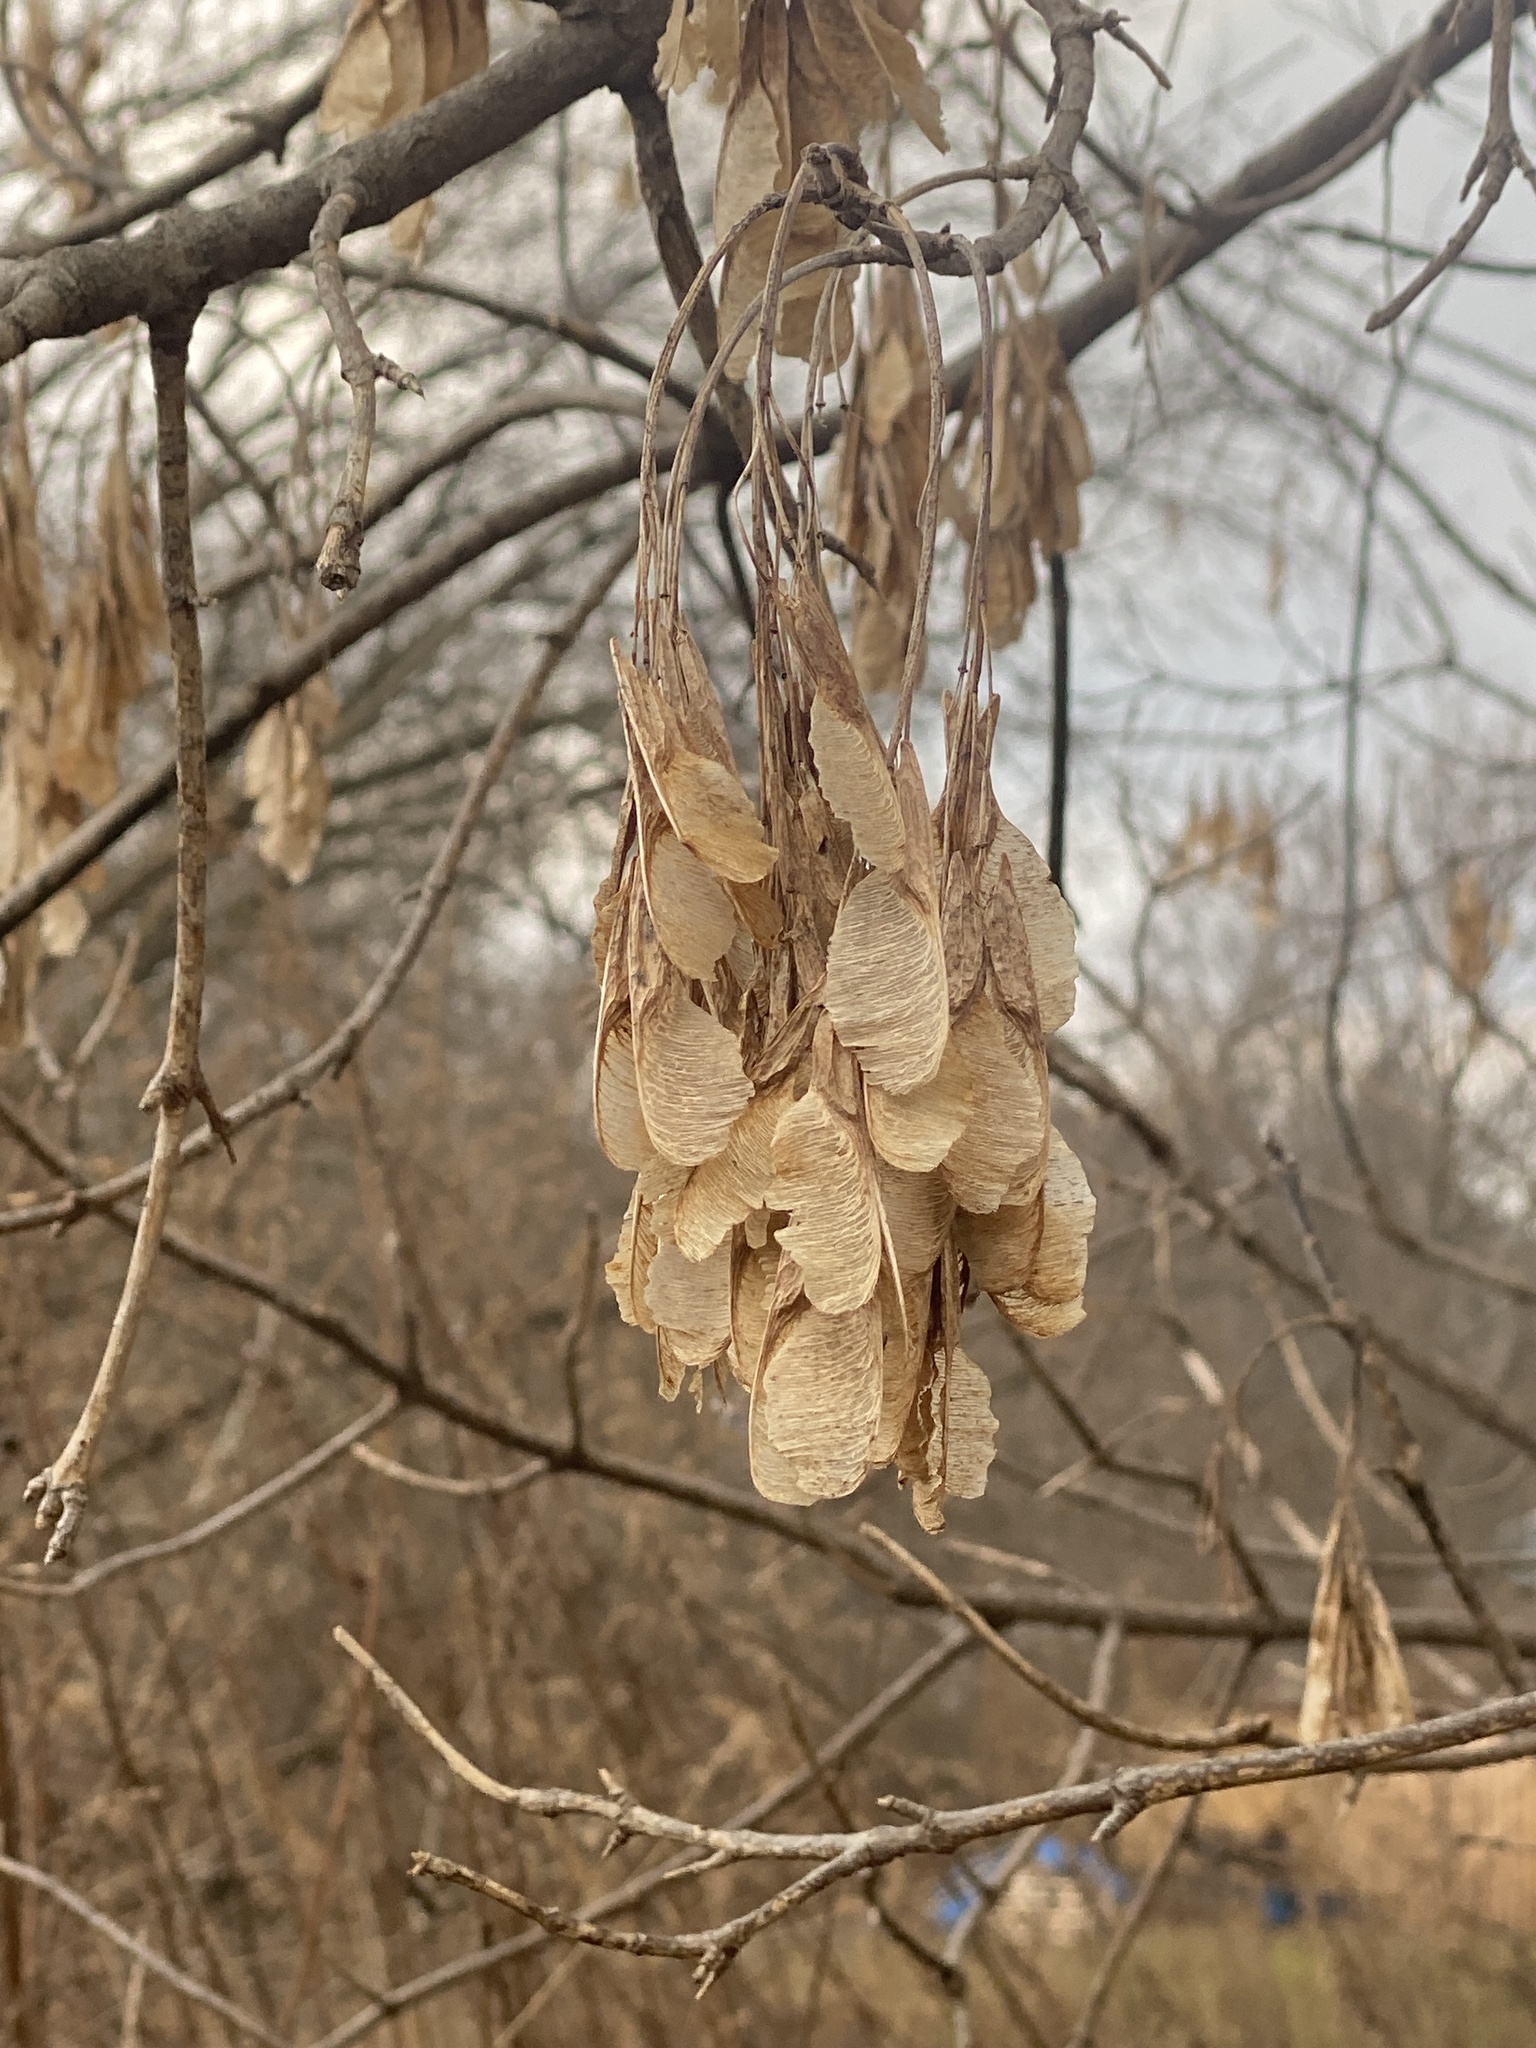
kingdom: Plantae
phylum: Tracheophyta
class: Magnoliopsida
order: Sapindales
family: Sapindaceae
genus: Acer
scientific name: Acer negundo
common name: Ashleaf maple
